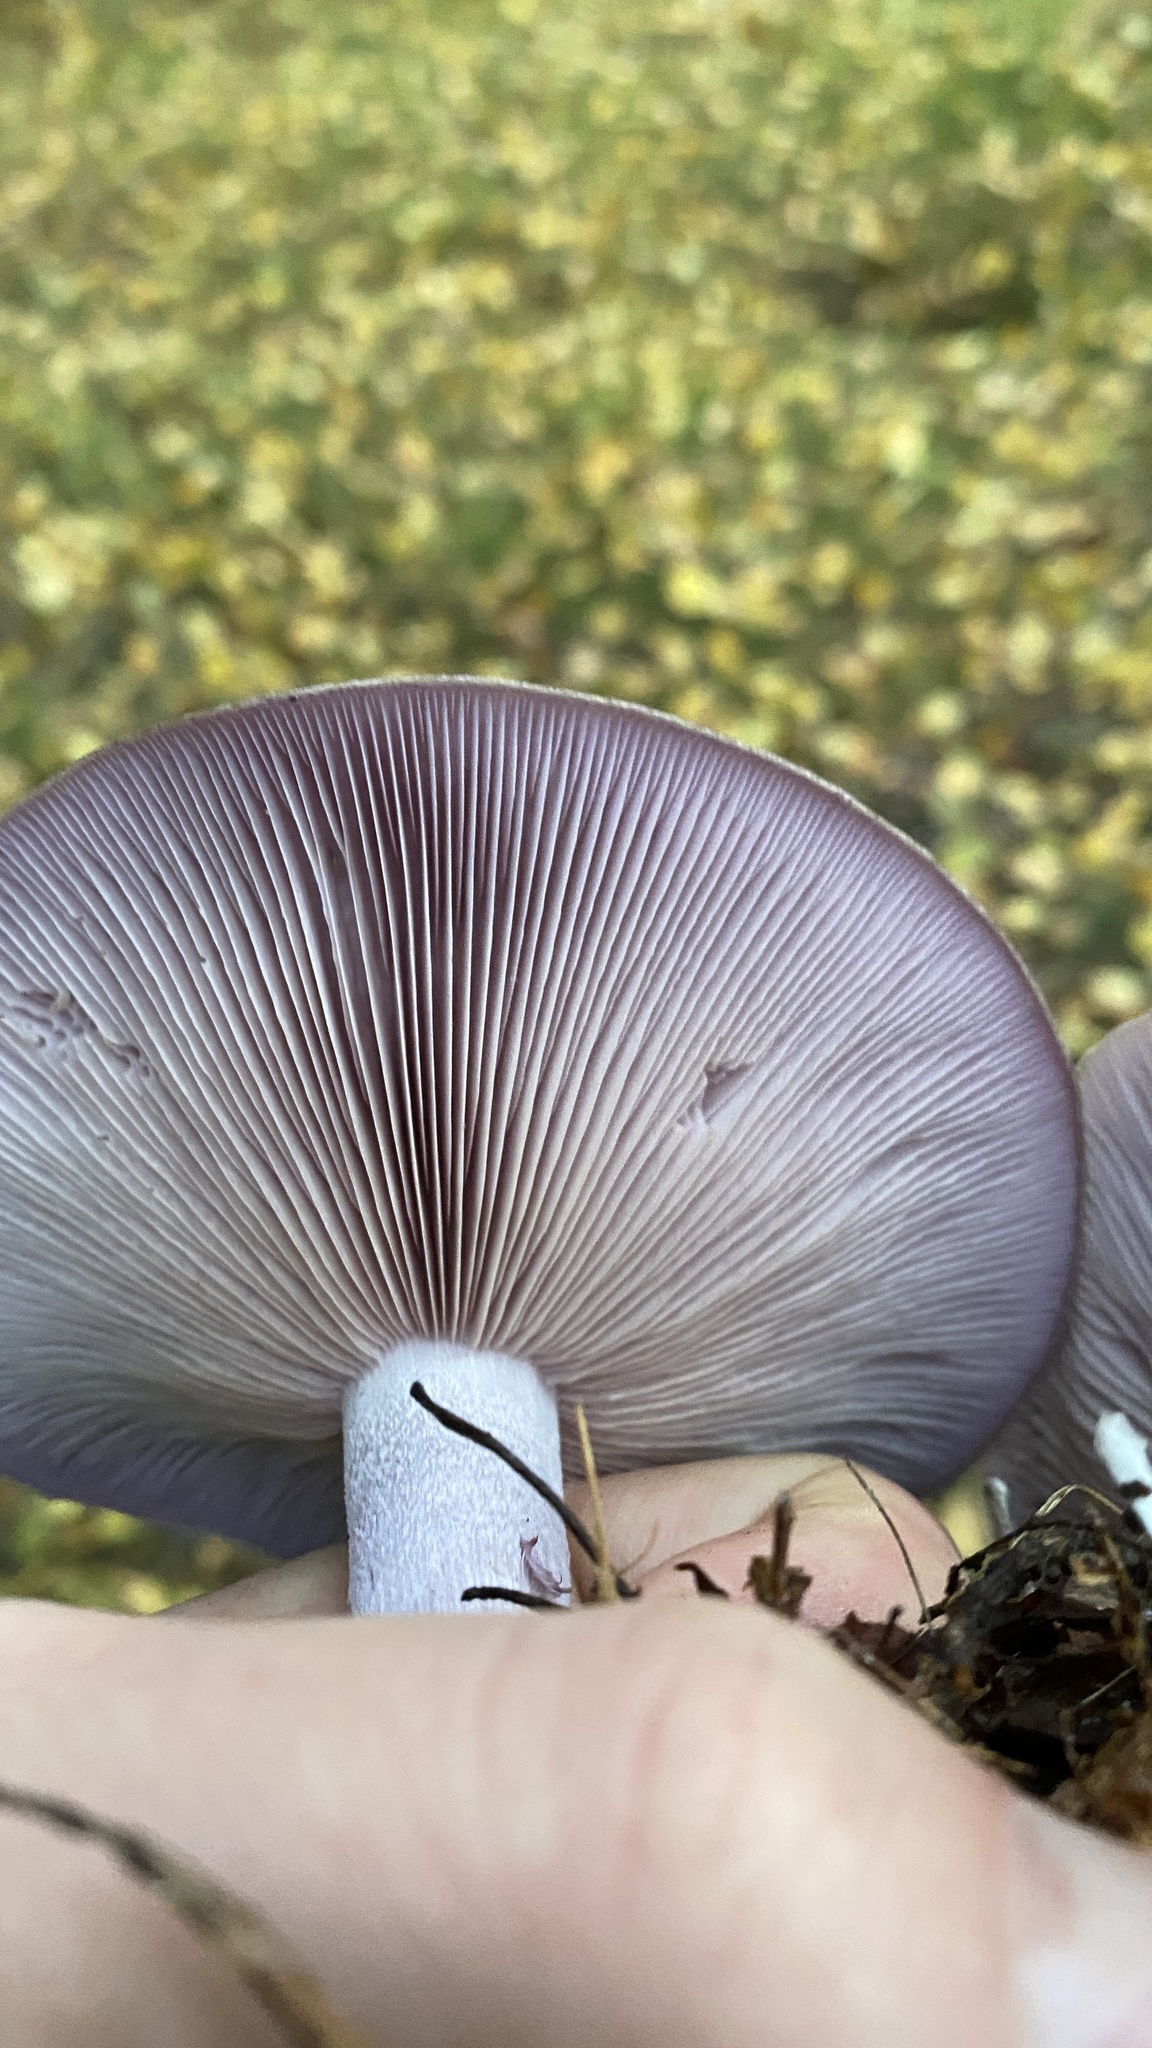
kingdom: Fungi
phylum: Basidiomycota
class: Agaricomycetes
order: Agaricales
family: Tricholomataceae
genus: Collybia
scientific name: Collybia
